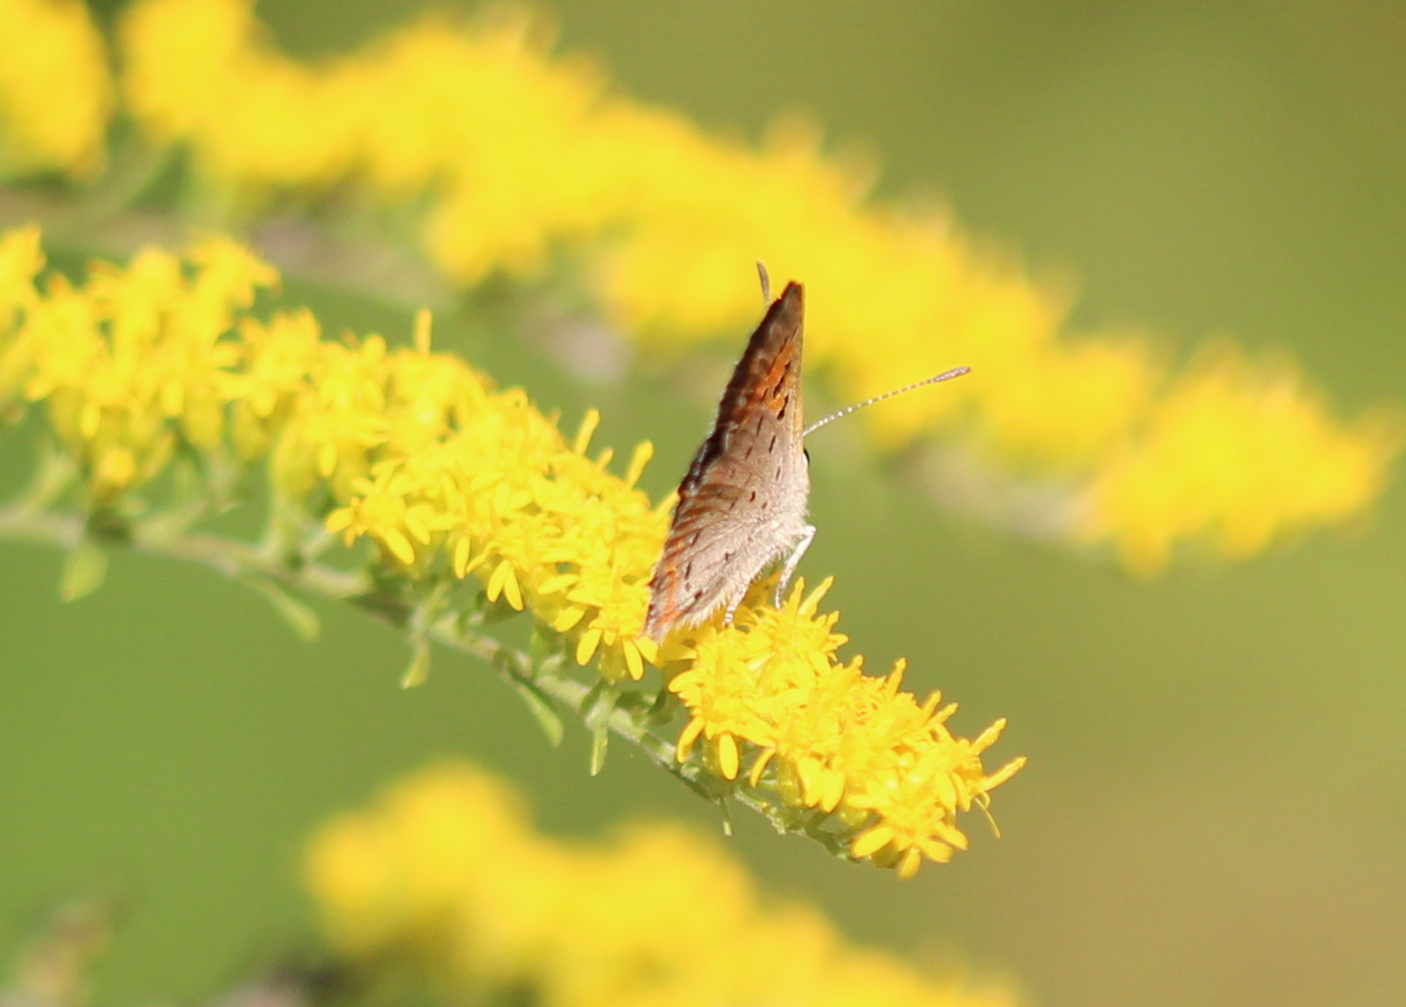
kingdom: Animalia
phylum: Arthropoda
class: Insecta
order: Lepidoptera
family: Lycaenidae
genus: Lycaena
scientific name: Lycaena hypophlaeas
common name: American copper
